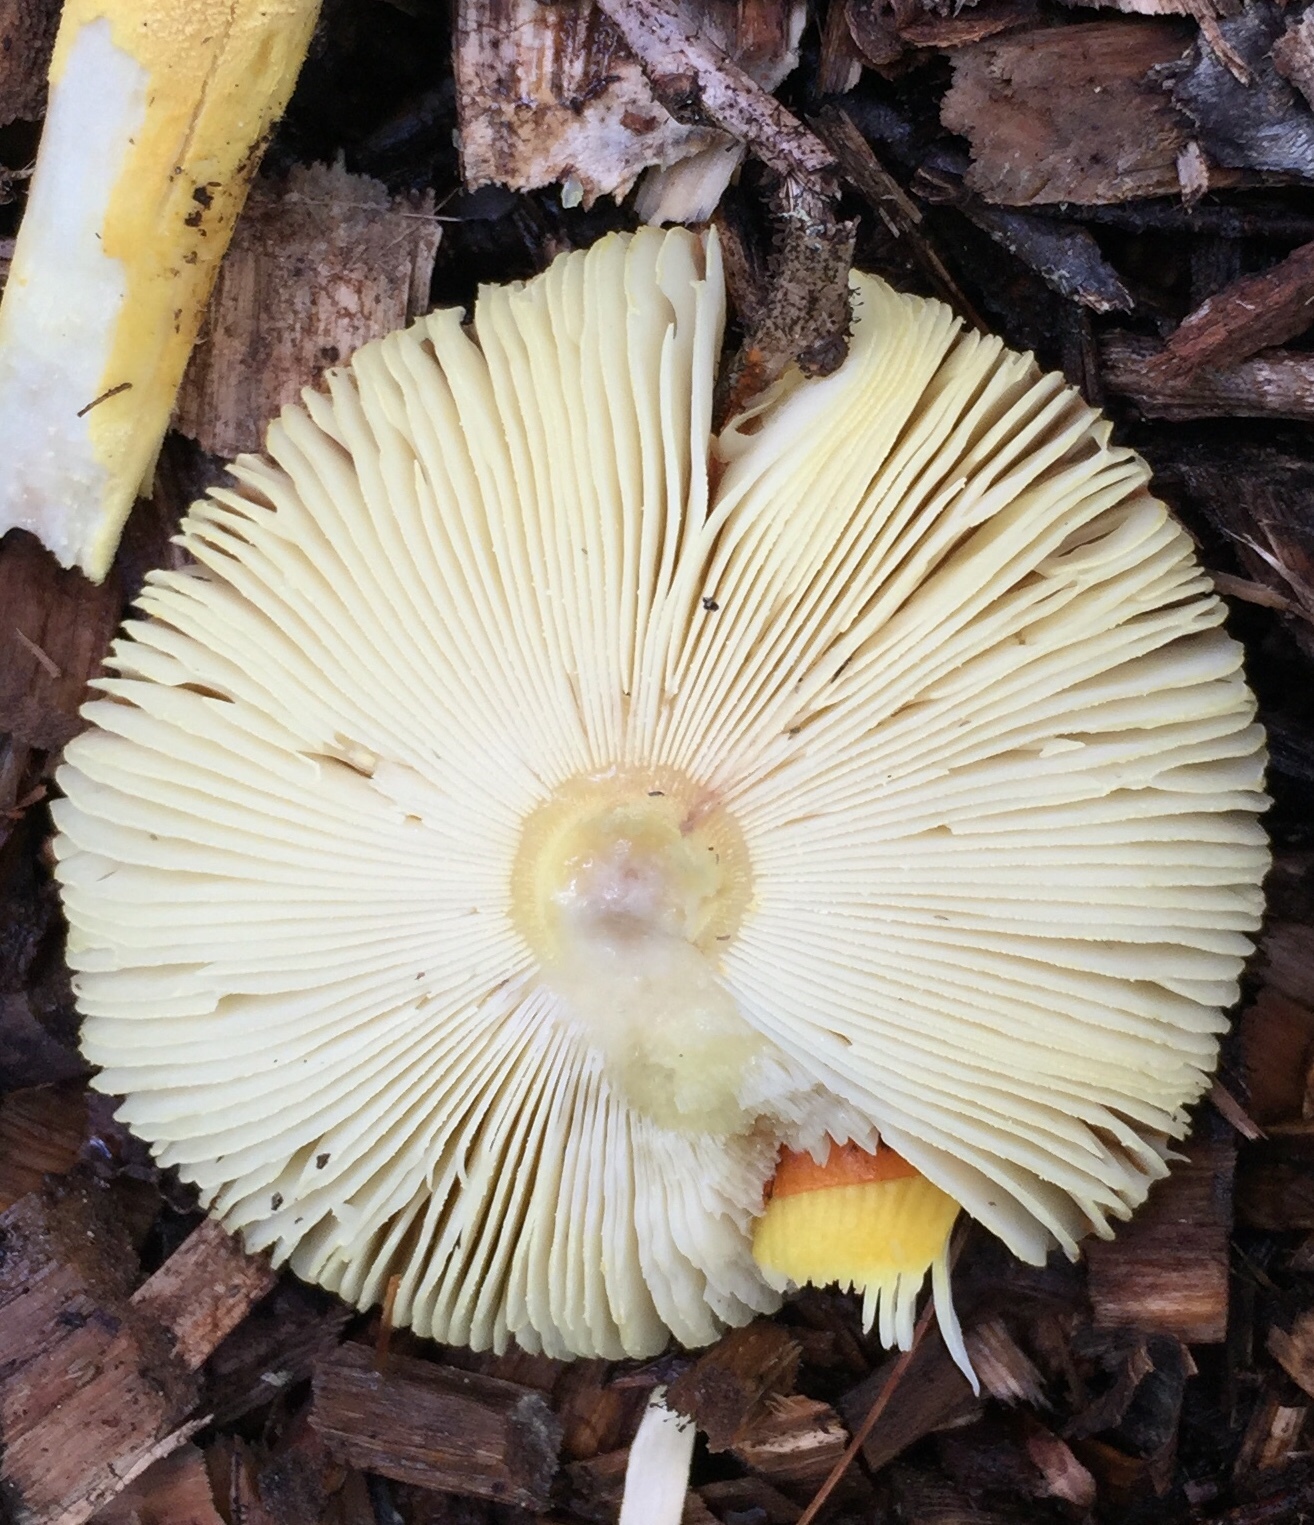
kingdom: Fungi
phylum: Basidiomycota
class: Agaricomycetes
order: Agaricales
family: Amanitaceae
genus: Amanita
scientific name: Amanita parcivolvata
